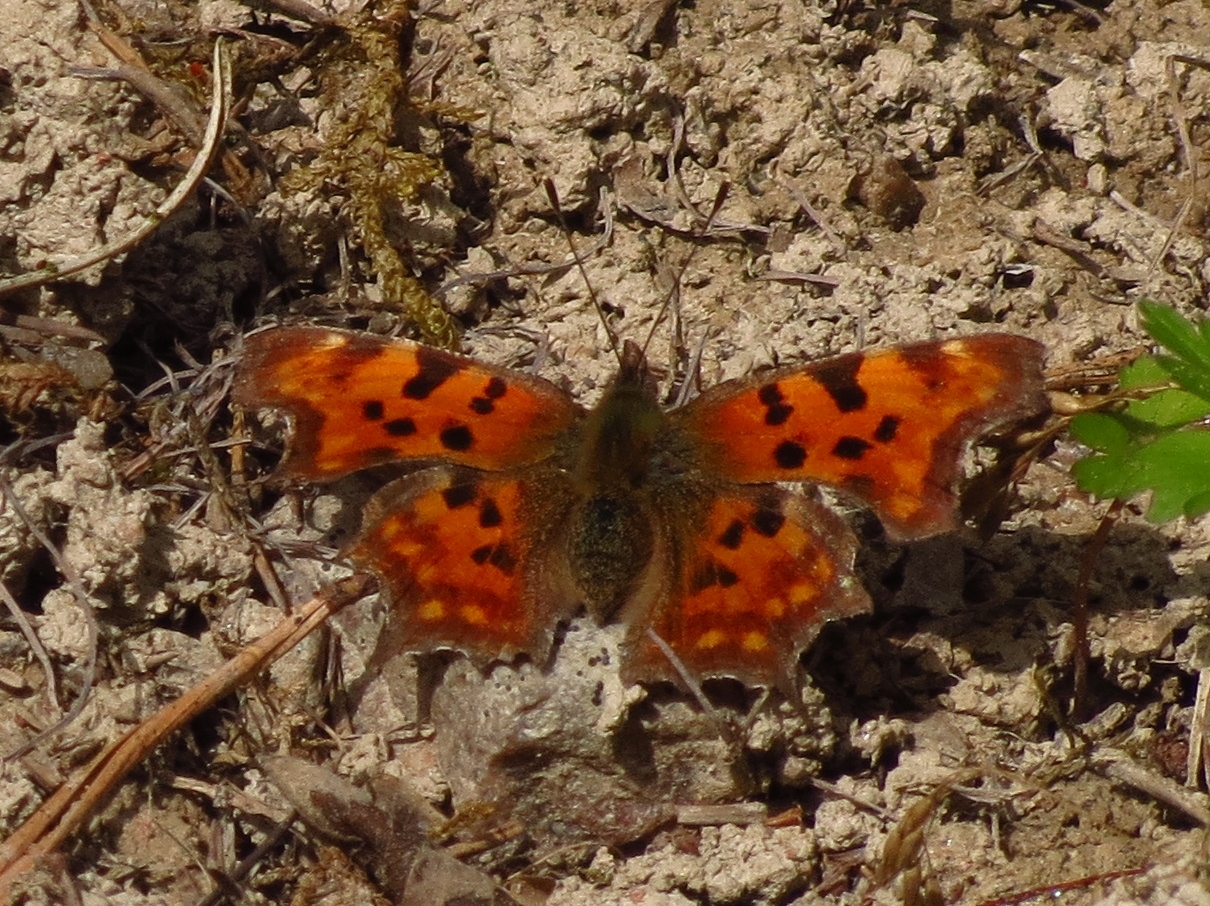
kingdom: Animalia
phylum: Arthropoda
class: Insecta
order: Lepidoptera
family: Nymphalidae
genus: Polygonia
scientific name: Polygonia c-album
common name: Comma
